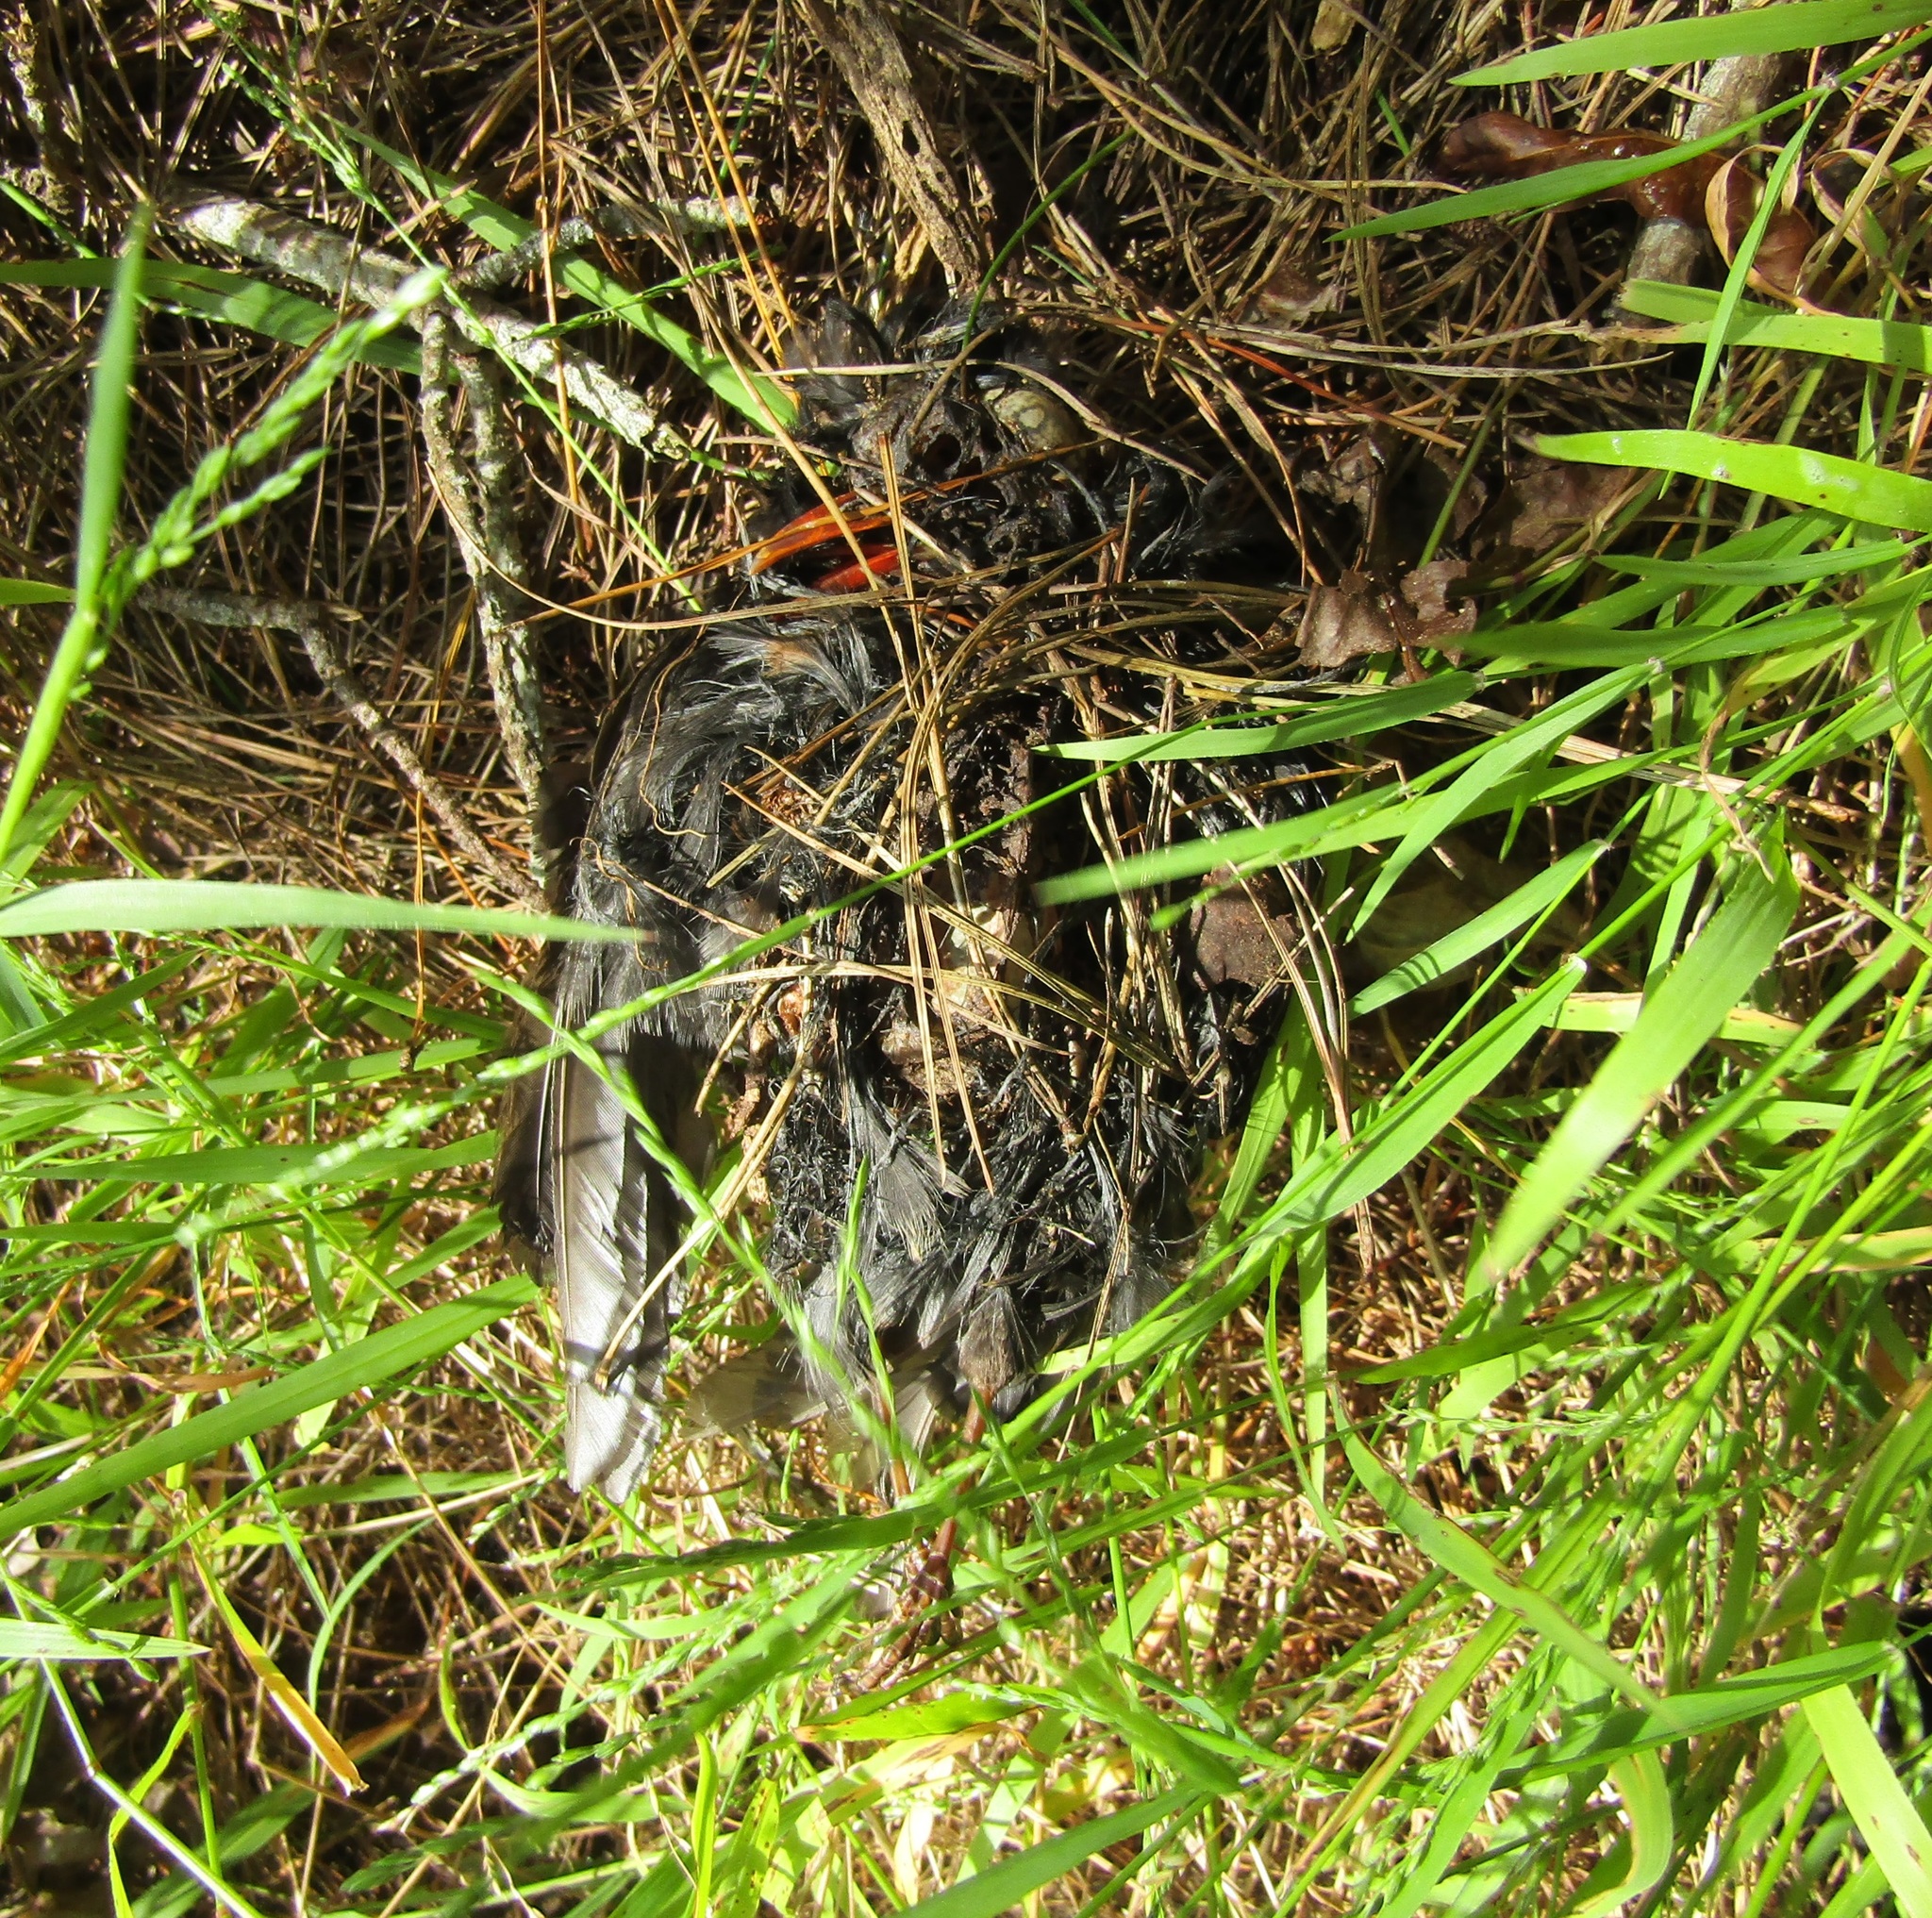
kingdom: Animalia
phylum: Chordata
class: Aves
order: Passeriformes
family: Turdidae
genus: Turdus
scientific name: Turdus merula
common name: Common blackbird
